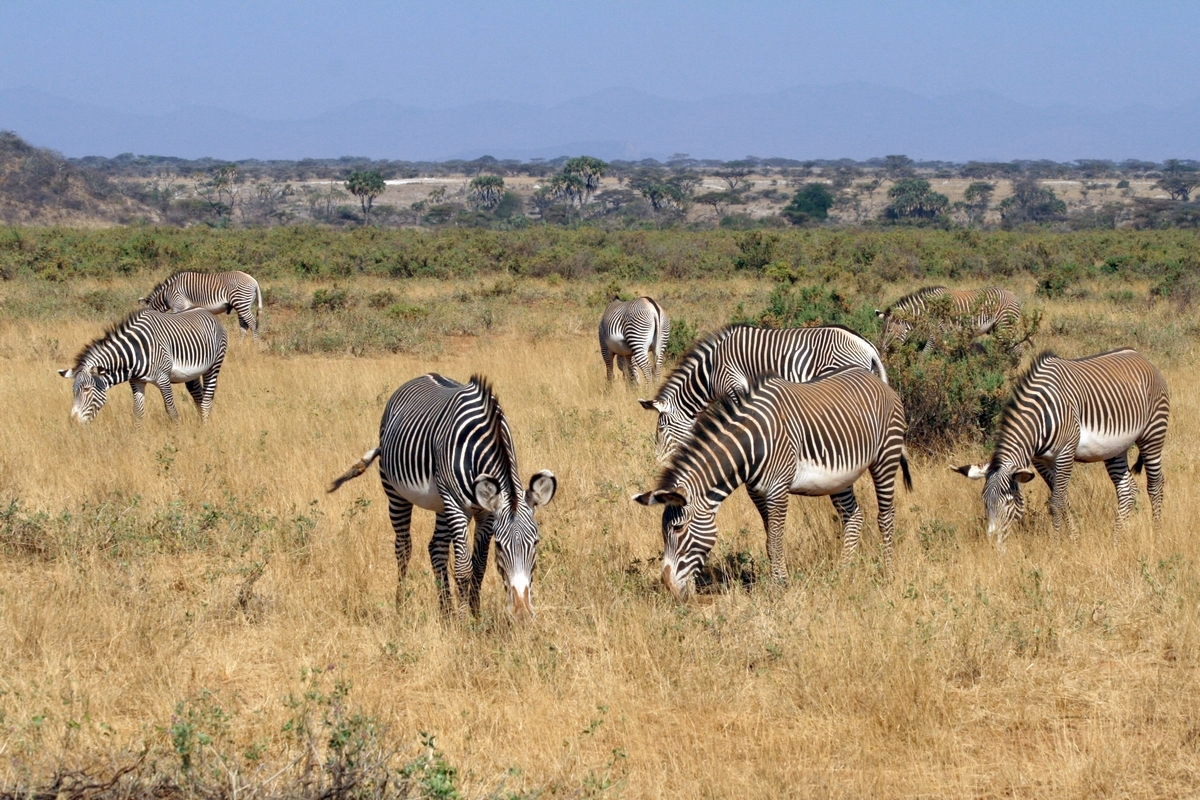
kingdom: Animalia
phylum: Chordata
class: Mammalia
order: Perissodactyla
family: Equidae
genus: Equus
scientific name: Equus grevyi
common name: Grevy's zebra
